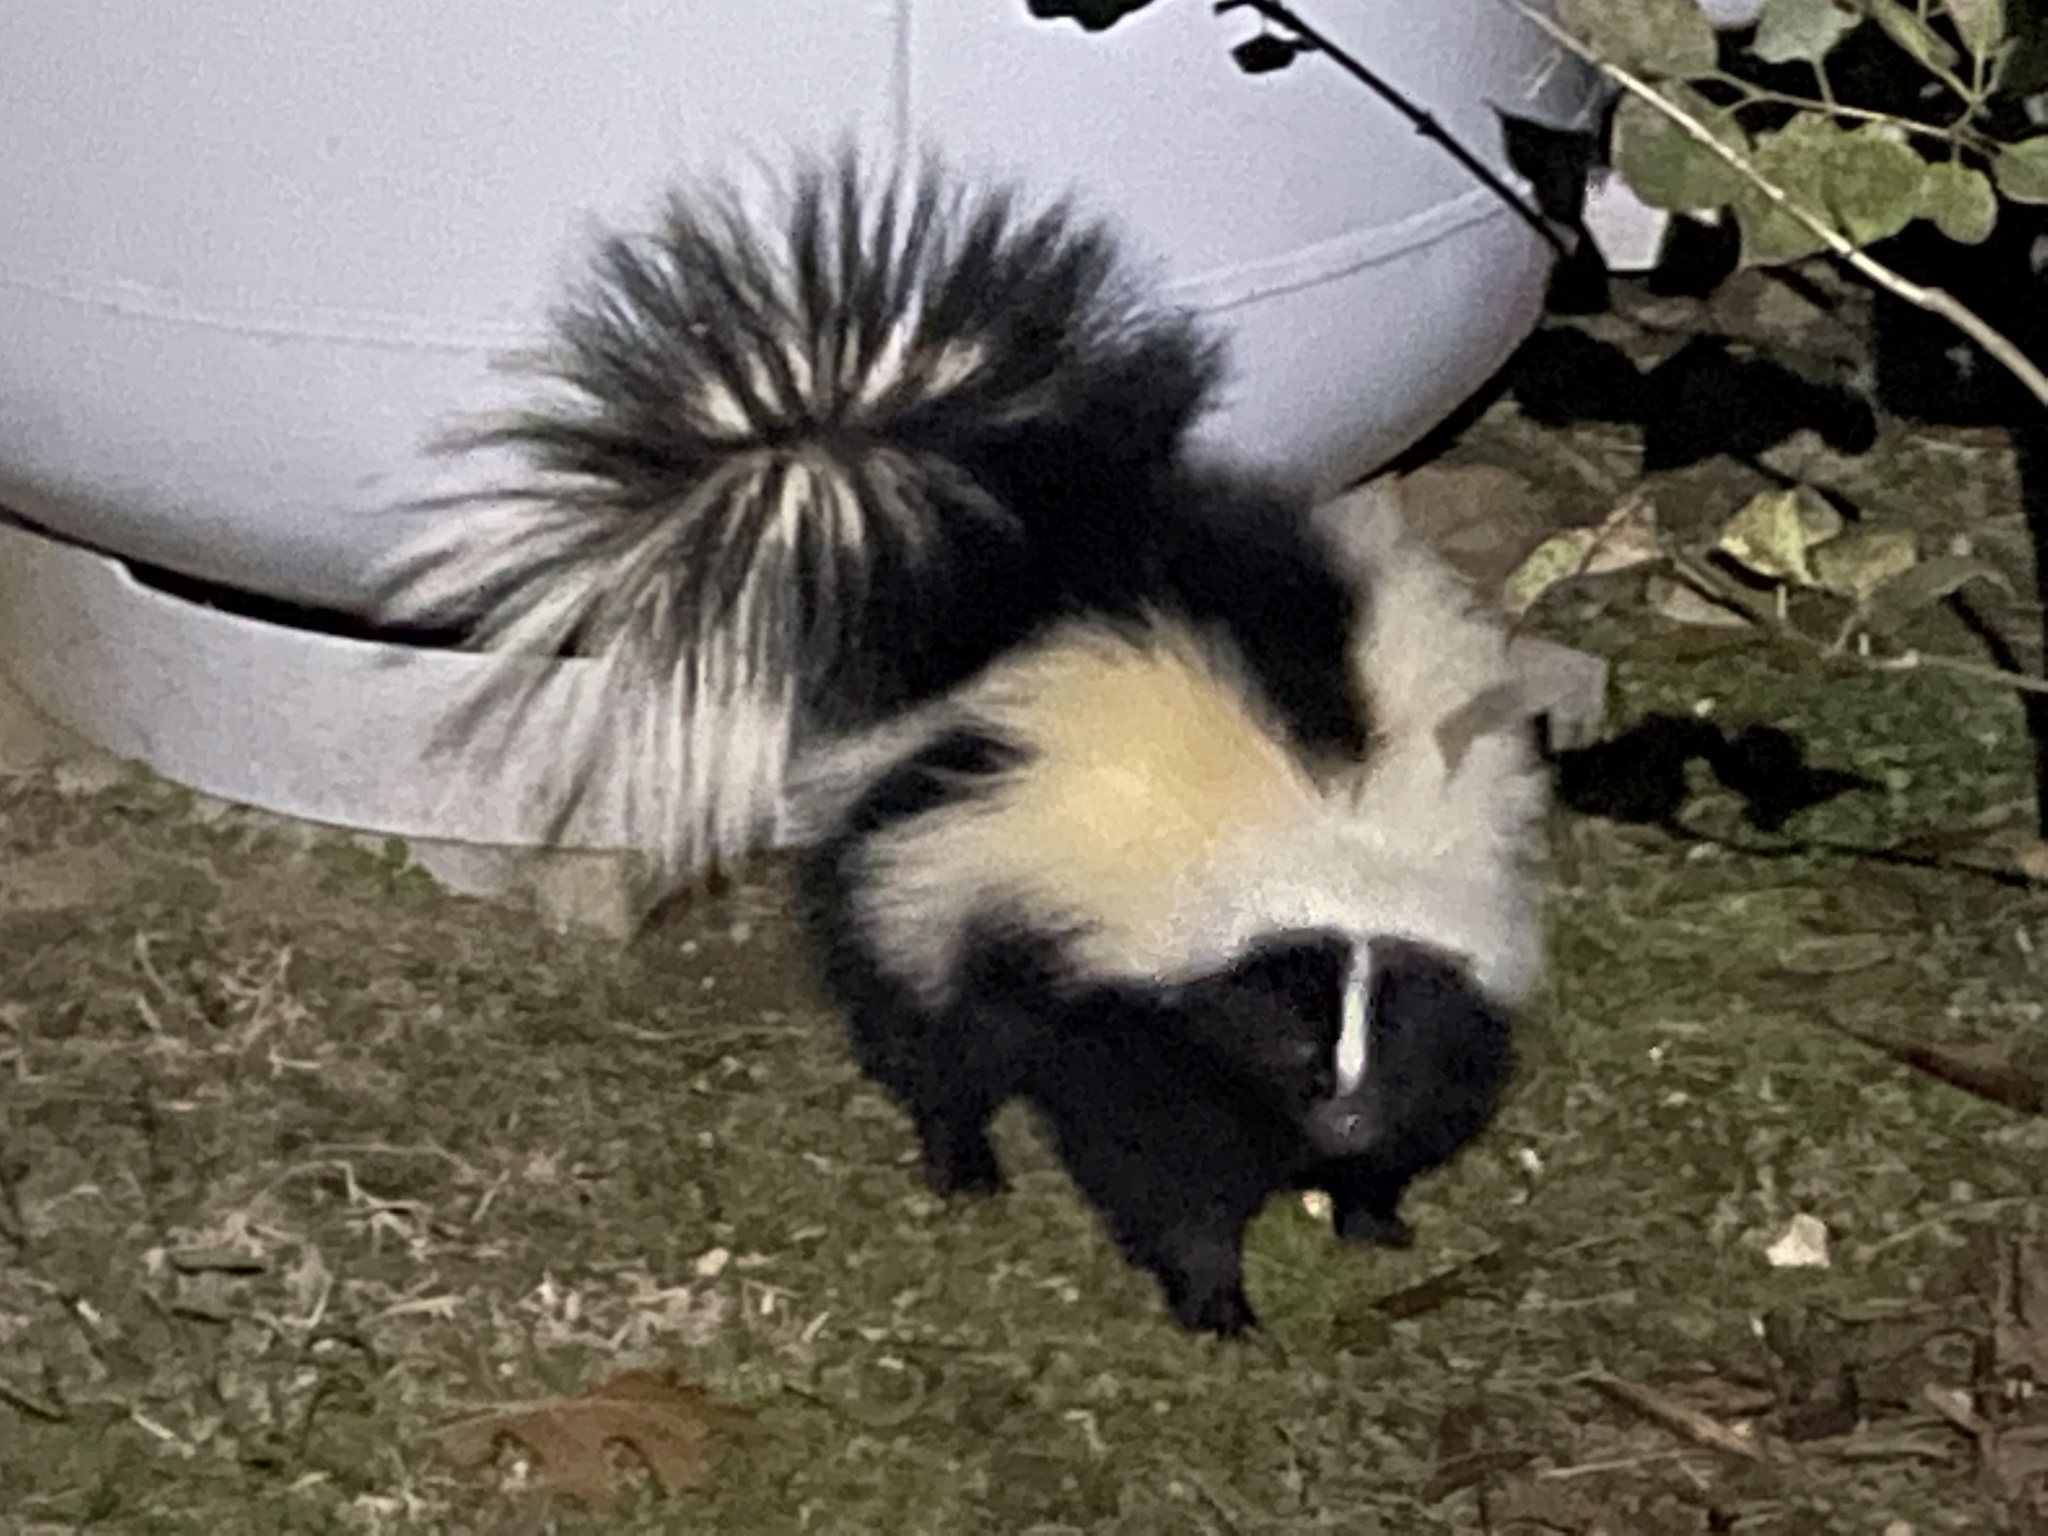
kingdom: Animalia
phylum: Chordata
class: Mammalia
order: Carnivora
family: Mephitidae
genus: Mephitis
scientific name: Mephitis mephitis
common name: Striped skunk
